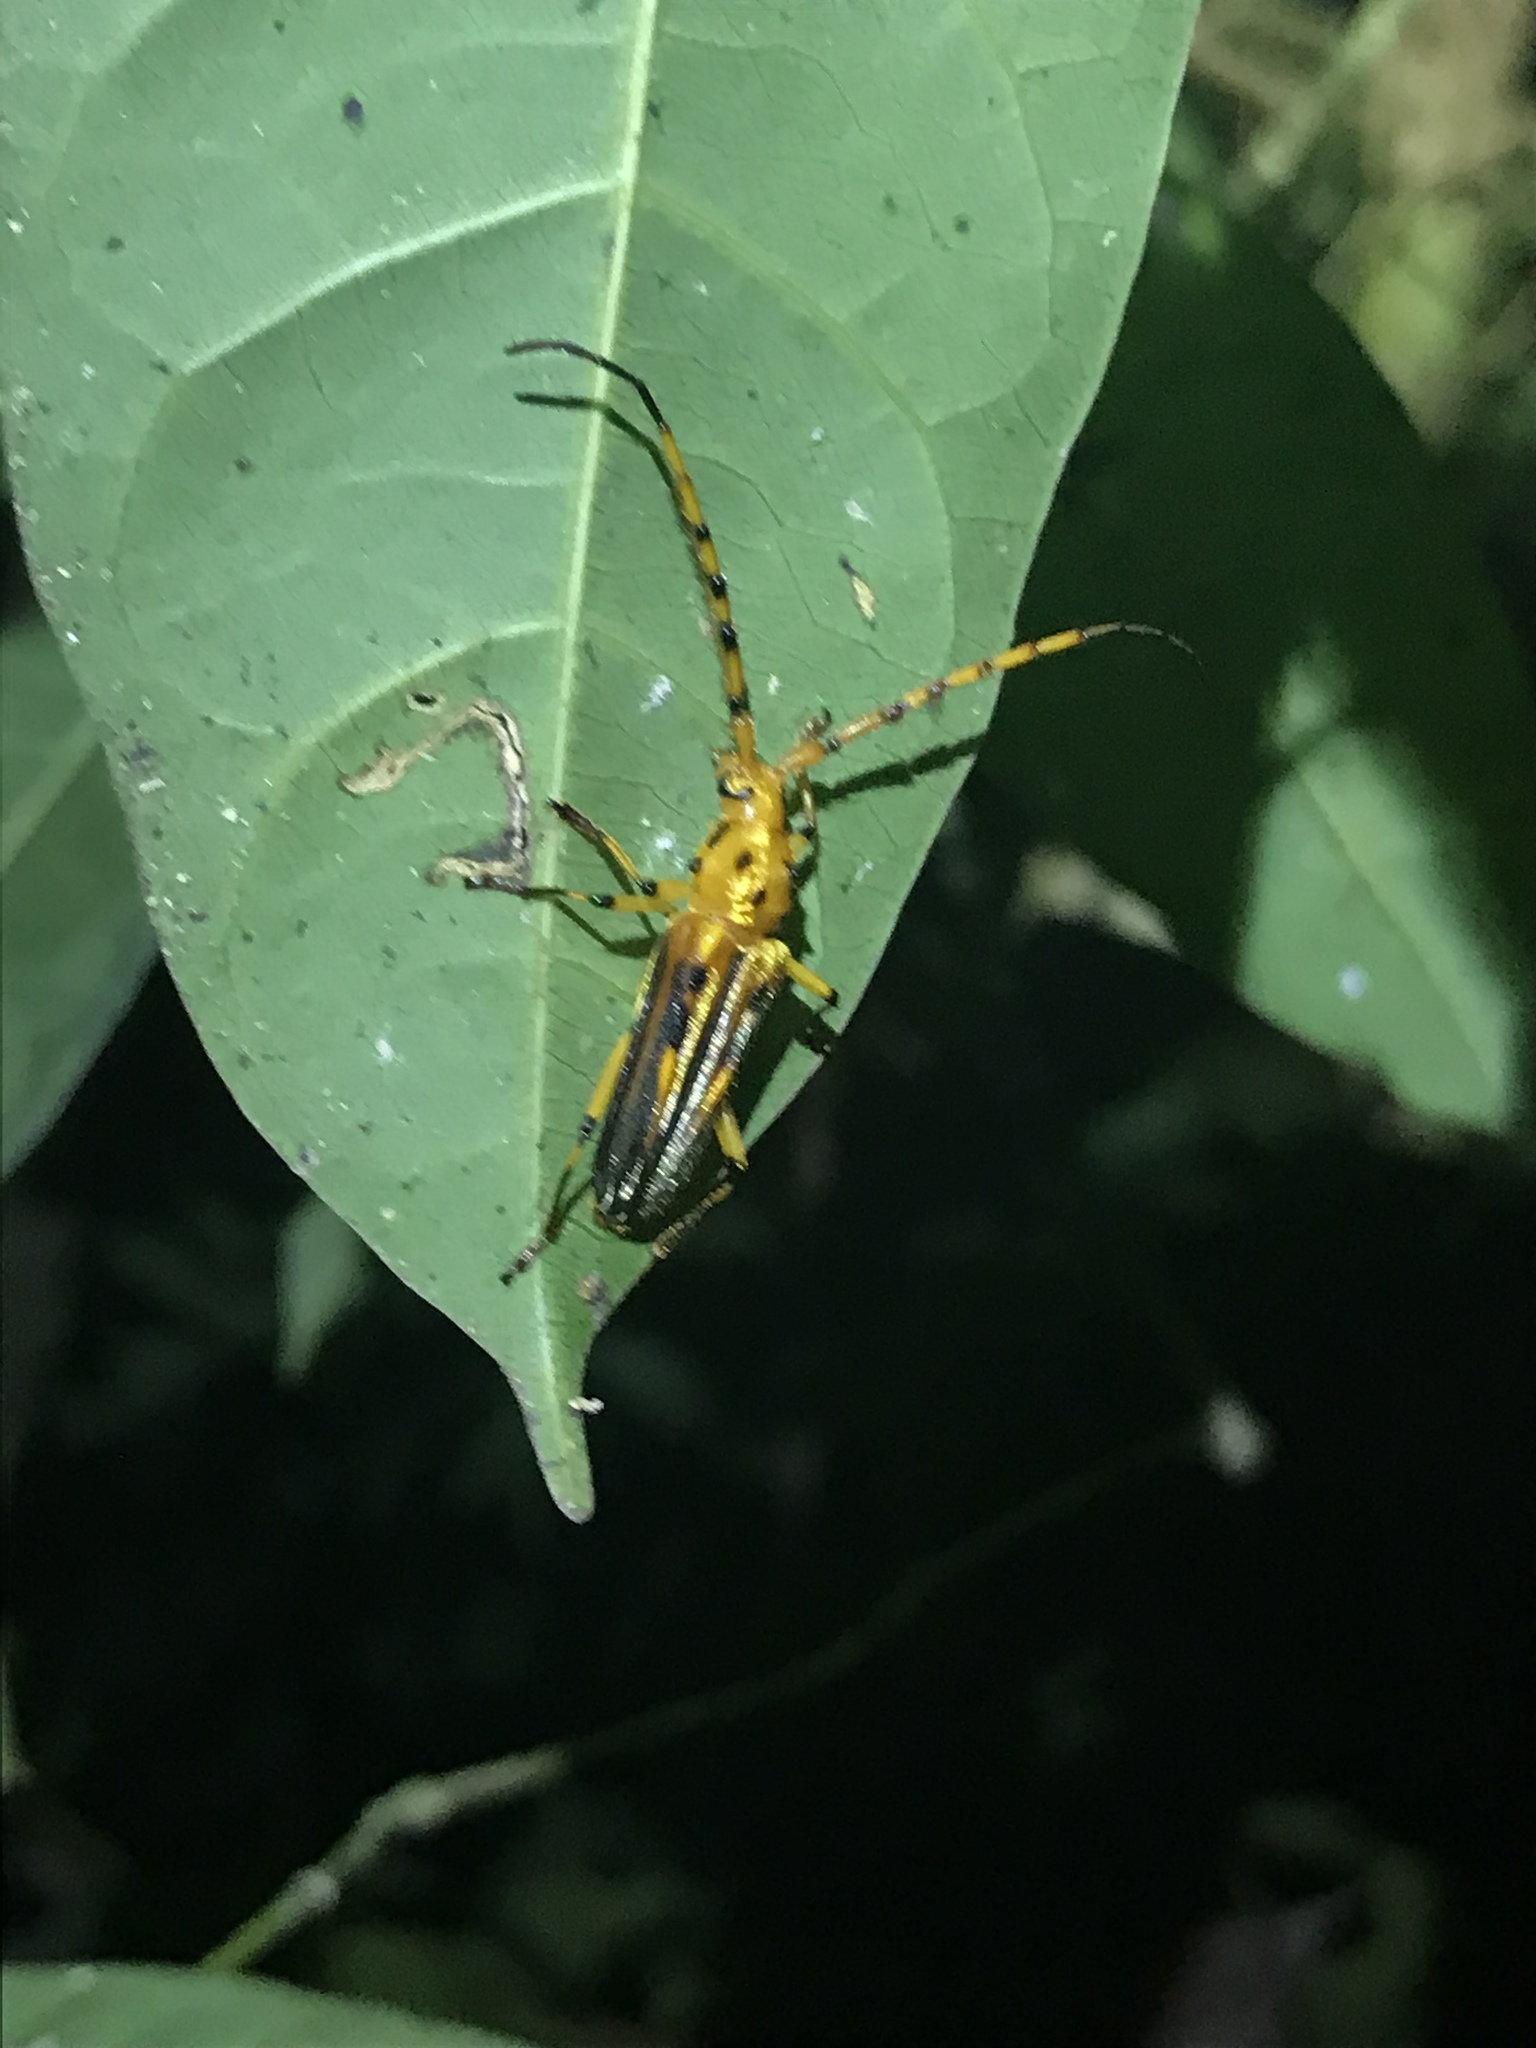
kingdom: Animalia
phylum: Arthropoda
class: Insecta
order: Coleoptera
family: Cerambycidae
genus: Ceragenia
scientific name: Ceragenia bicornis
